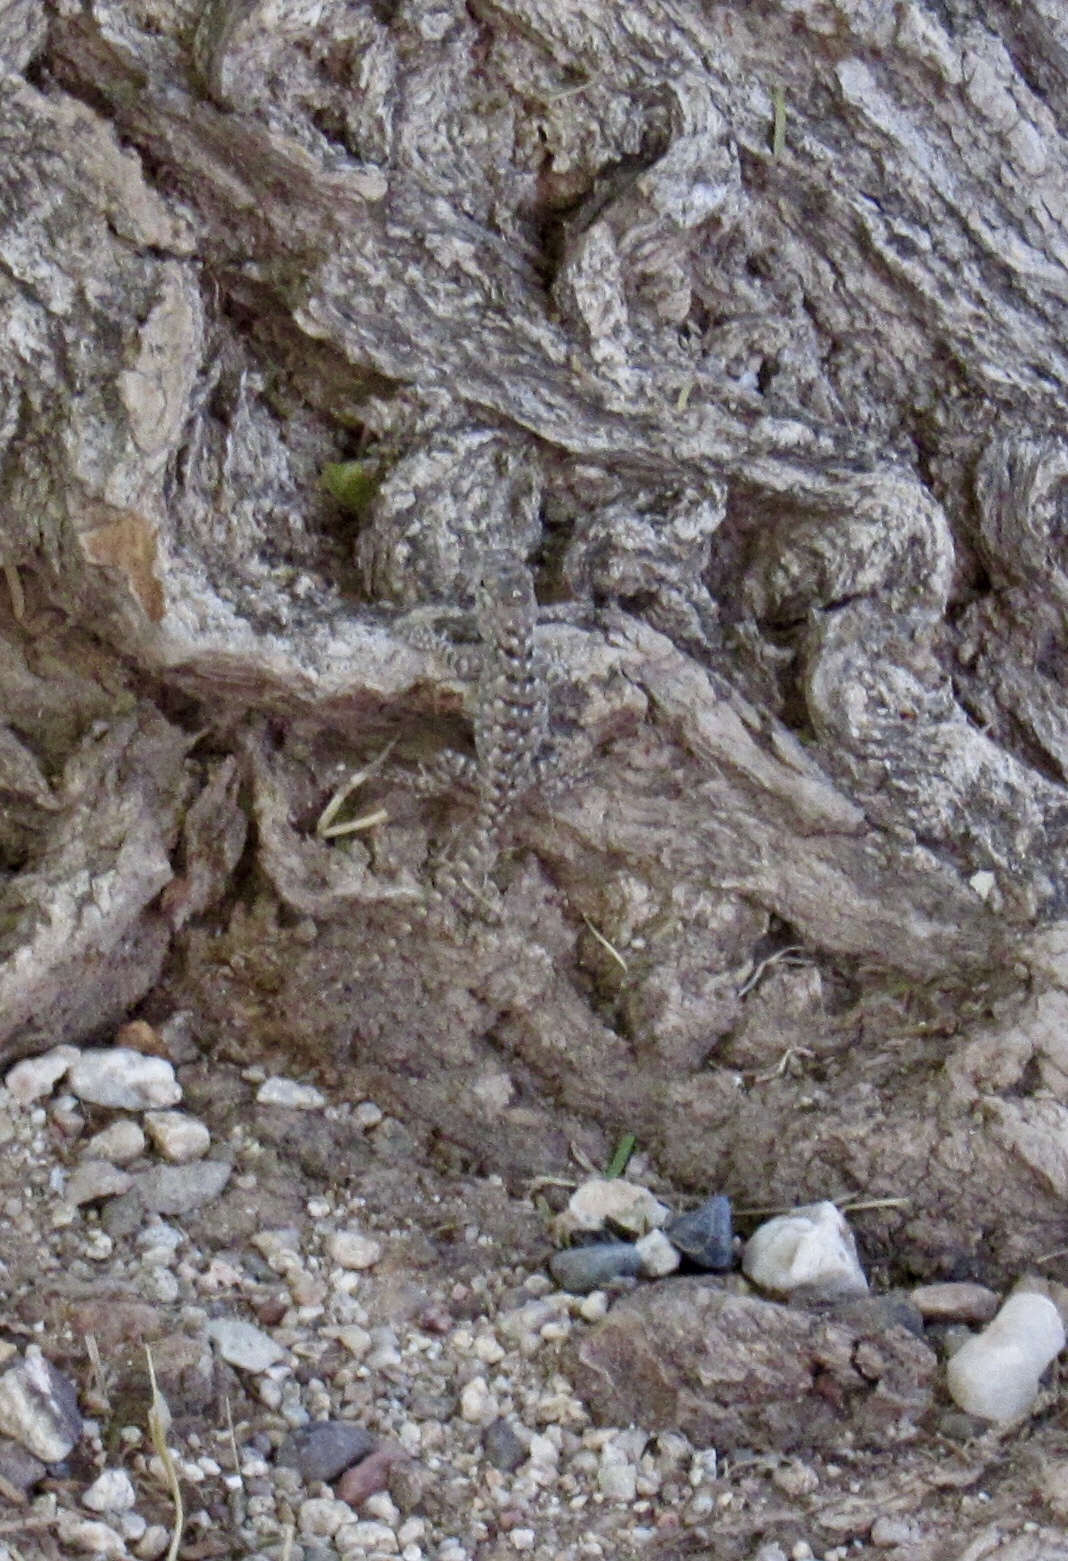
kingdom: Animalia
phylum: Chordata
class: Squamata
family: Phrynosomatidae
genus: Sceloporus
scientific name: Sceloporus clarkii
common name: Clark's spiny lizard
